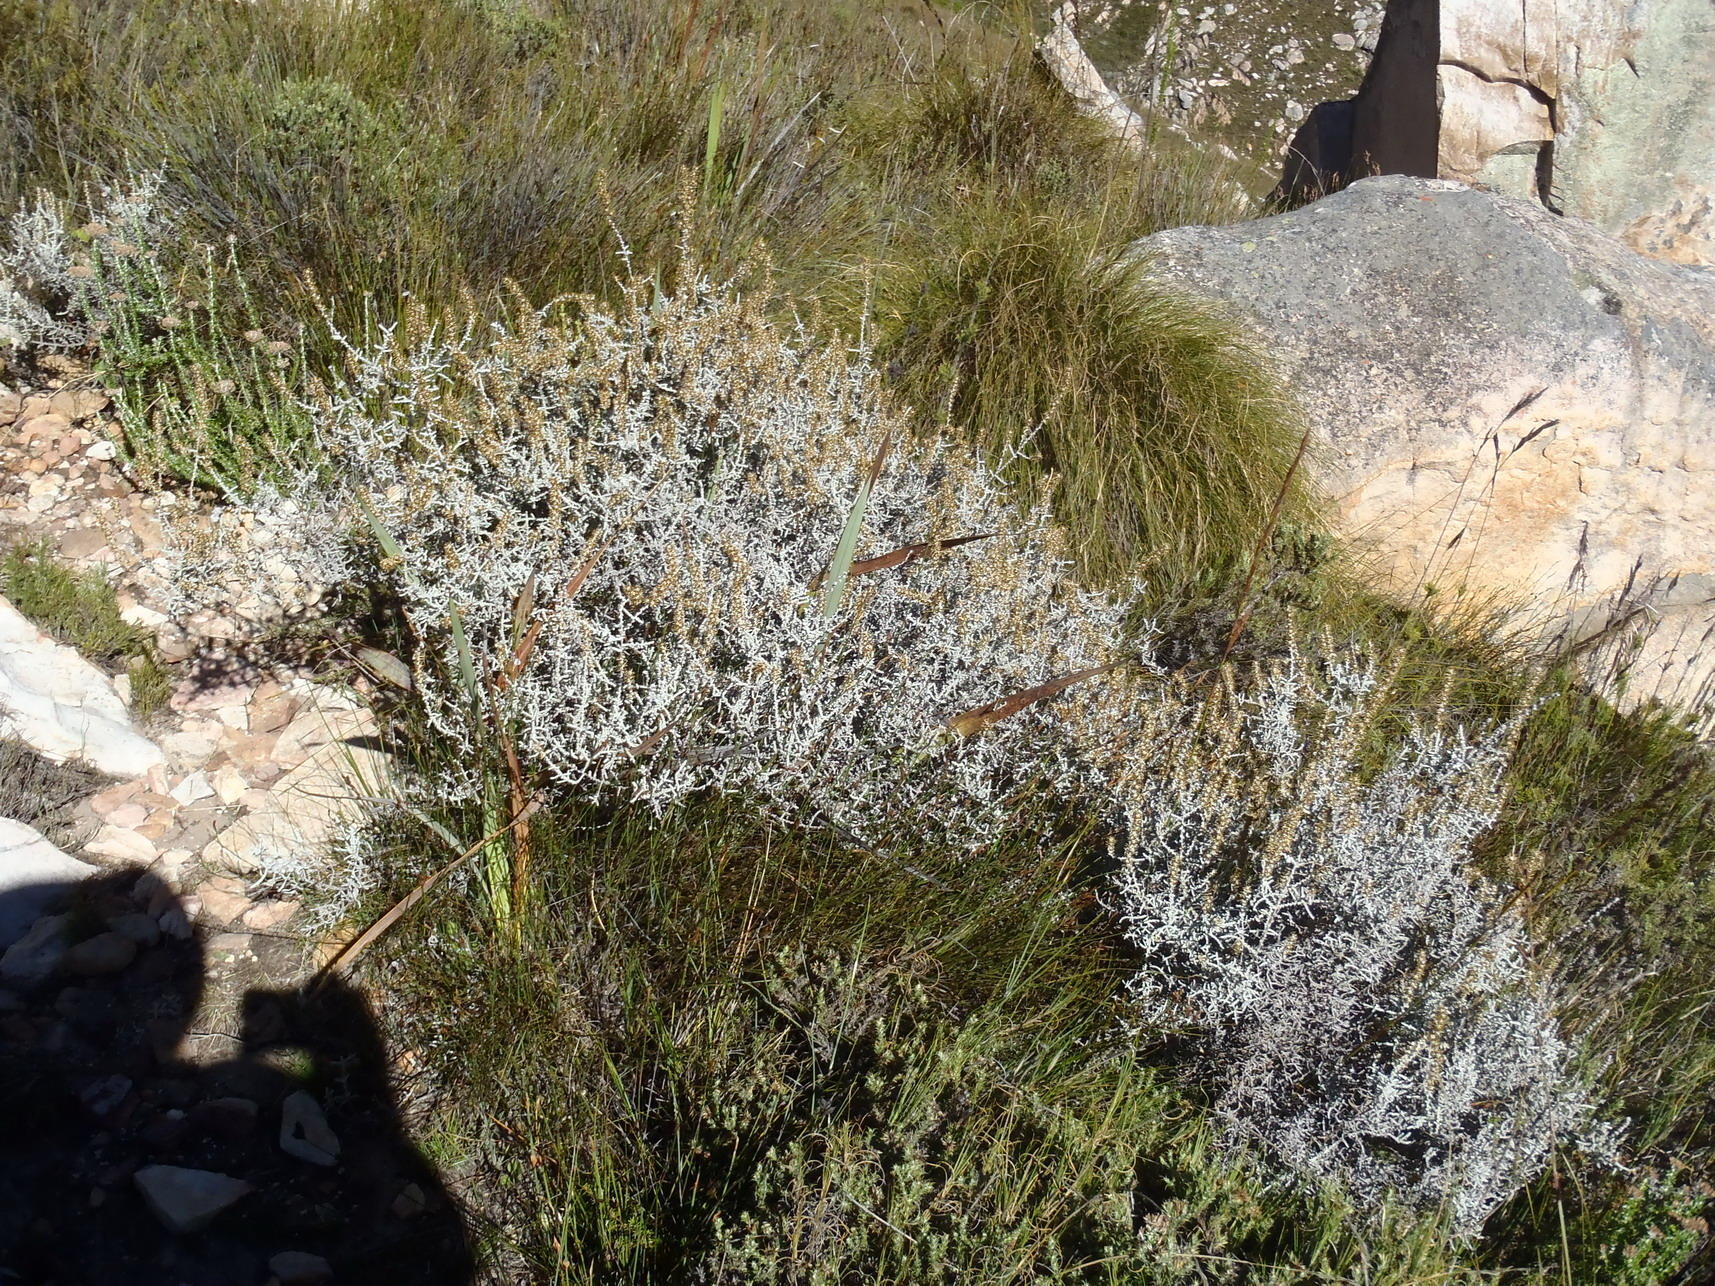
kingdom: Plantae
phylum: Tracheophyta
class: Magnoliopsida
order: Asterales
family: Asteraceae
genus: Seriphium
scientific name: Seriphium plumosum
